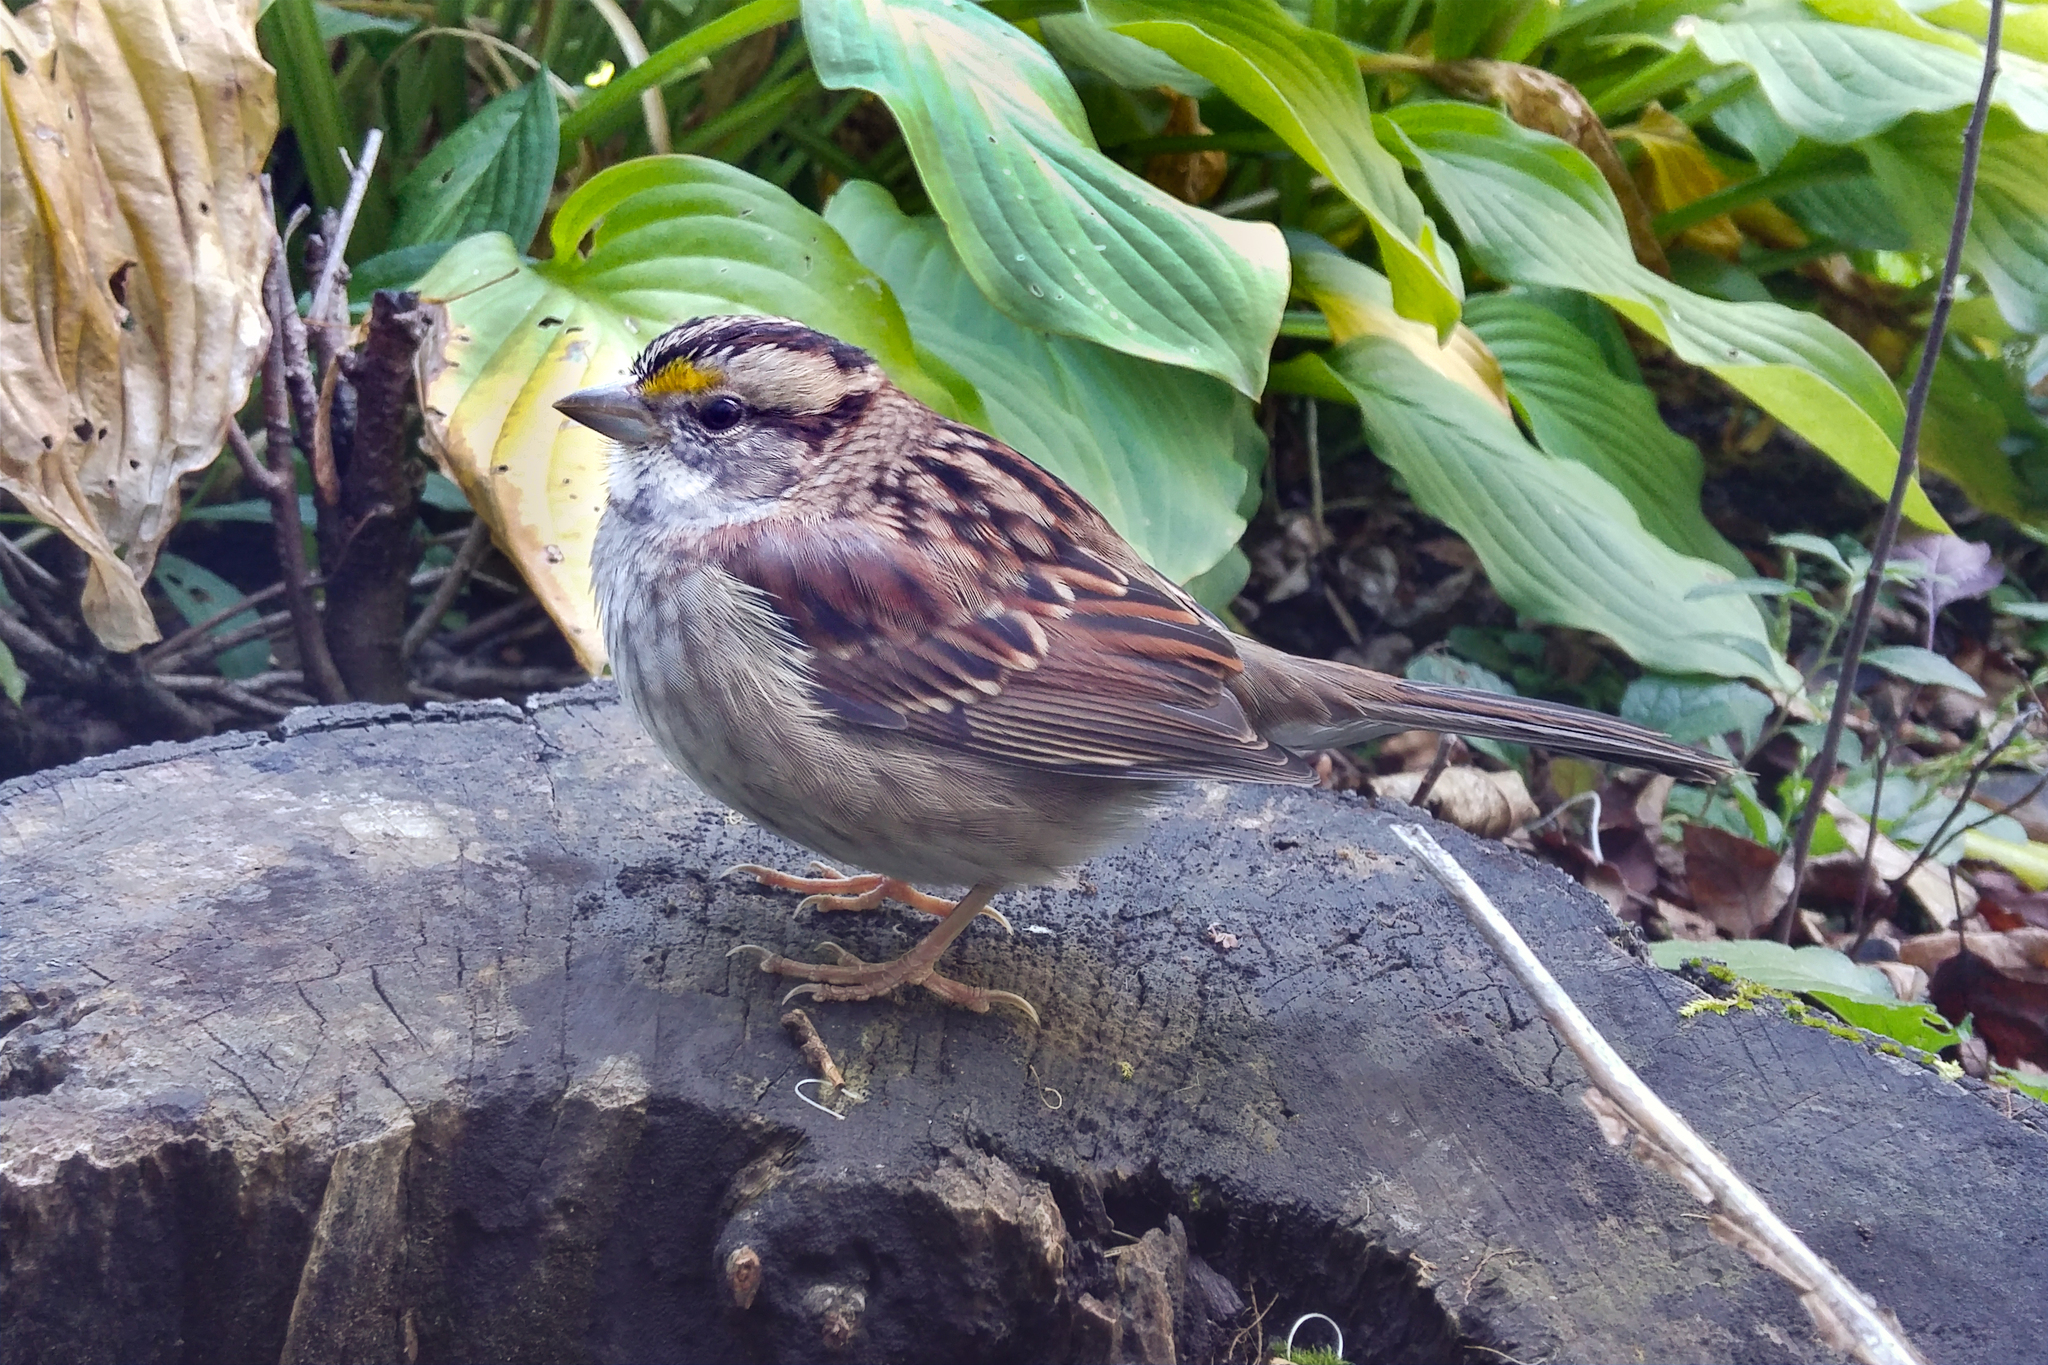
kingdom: Animalia
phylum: Chordata
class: Aves
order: Passeriformes
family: Passerellidae
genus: Zonotrichia
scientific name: Zonotrichia albicollis
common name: White-throated sparrow
